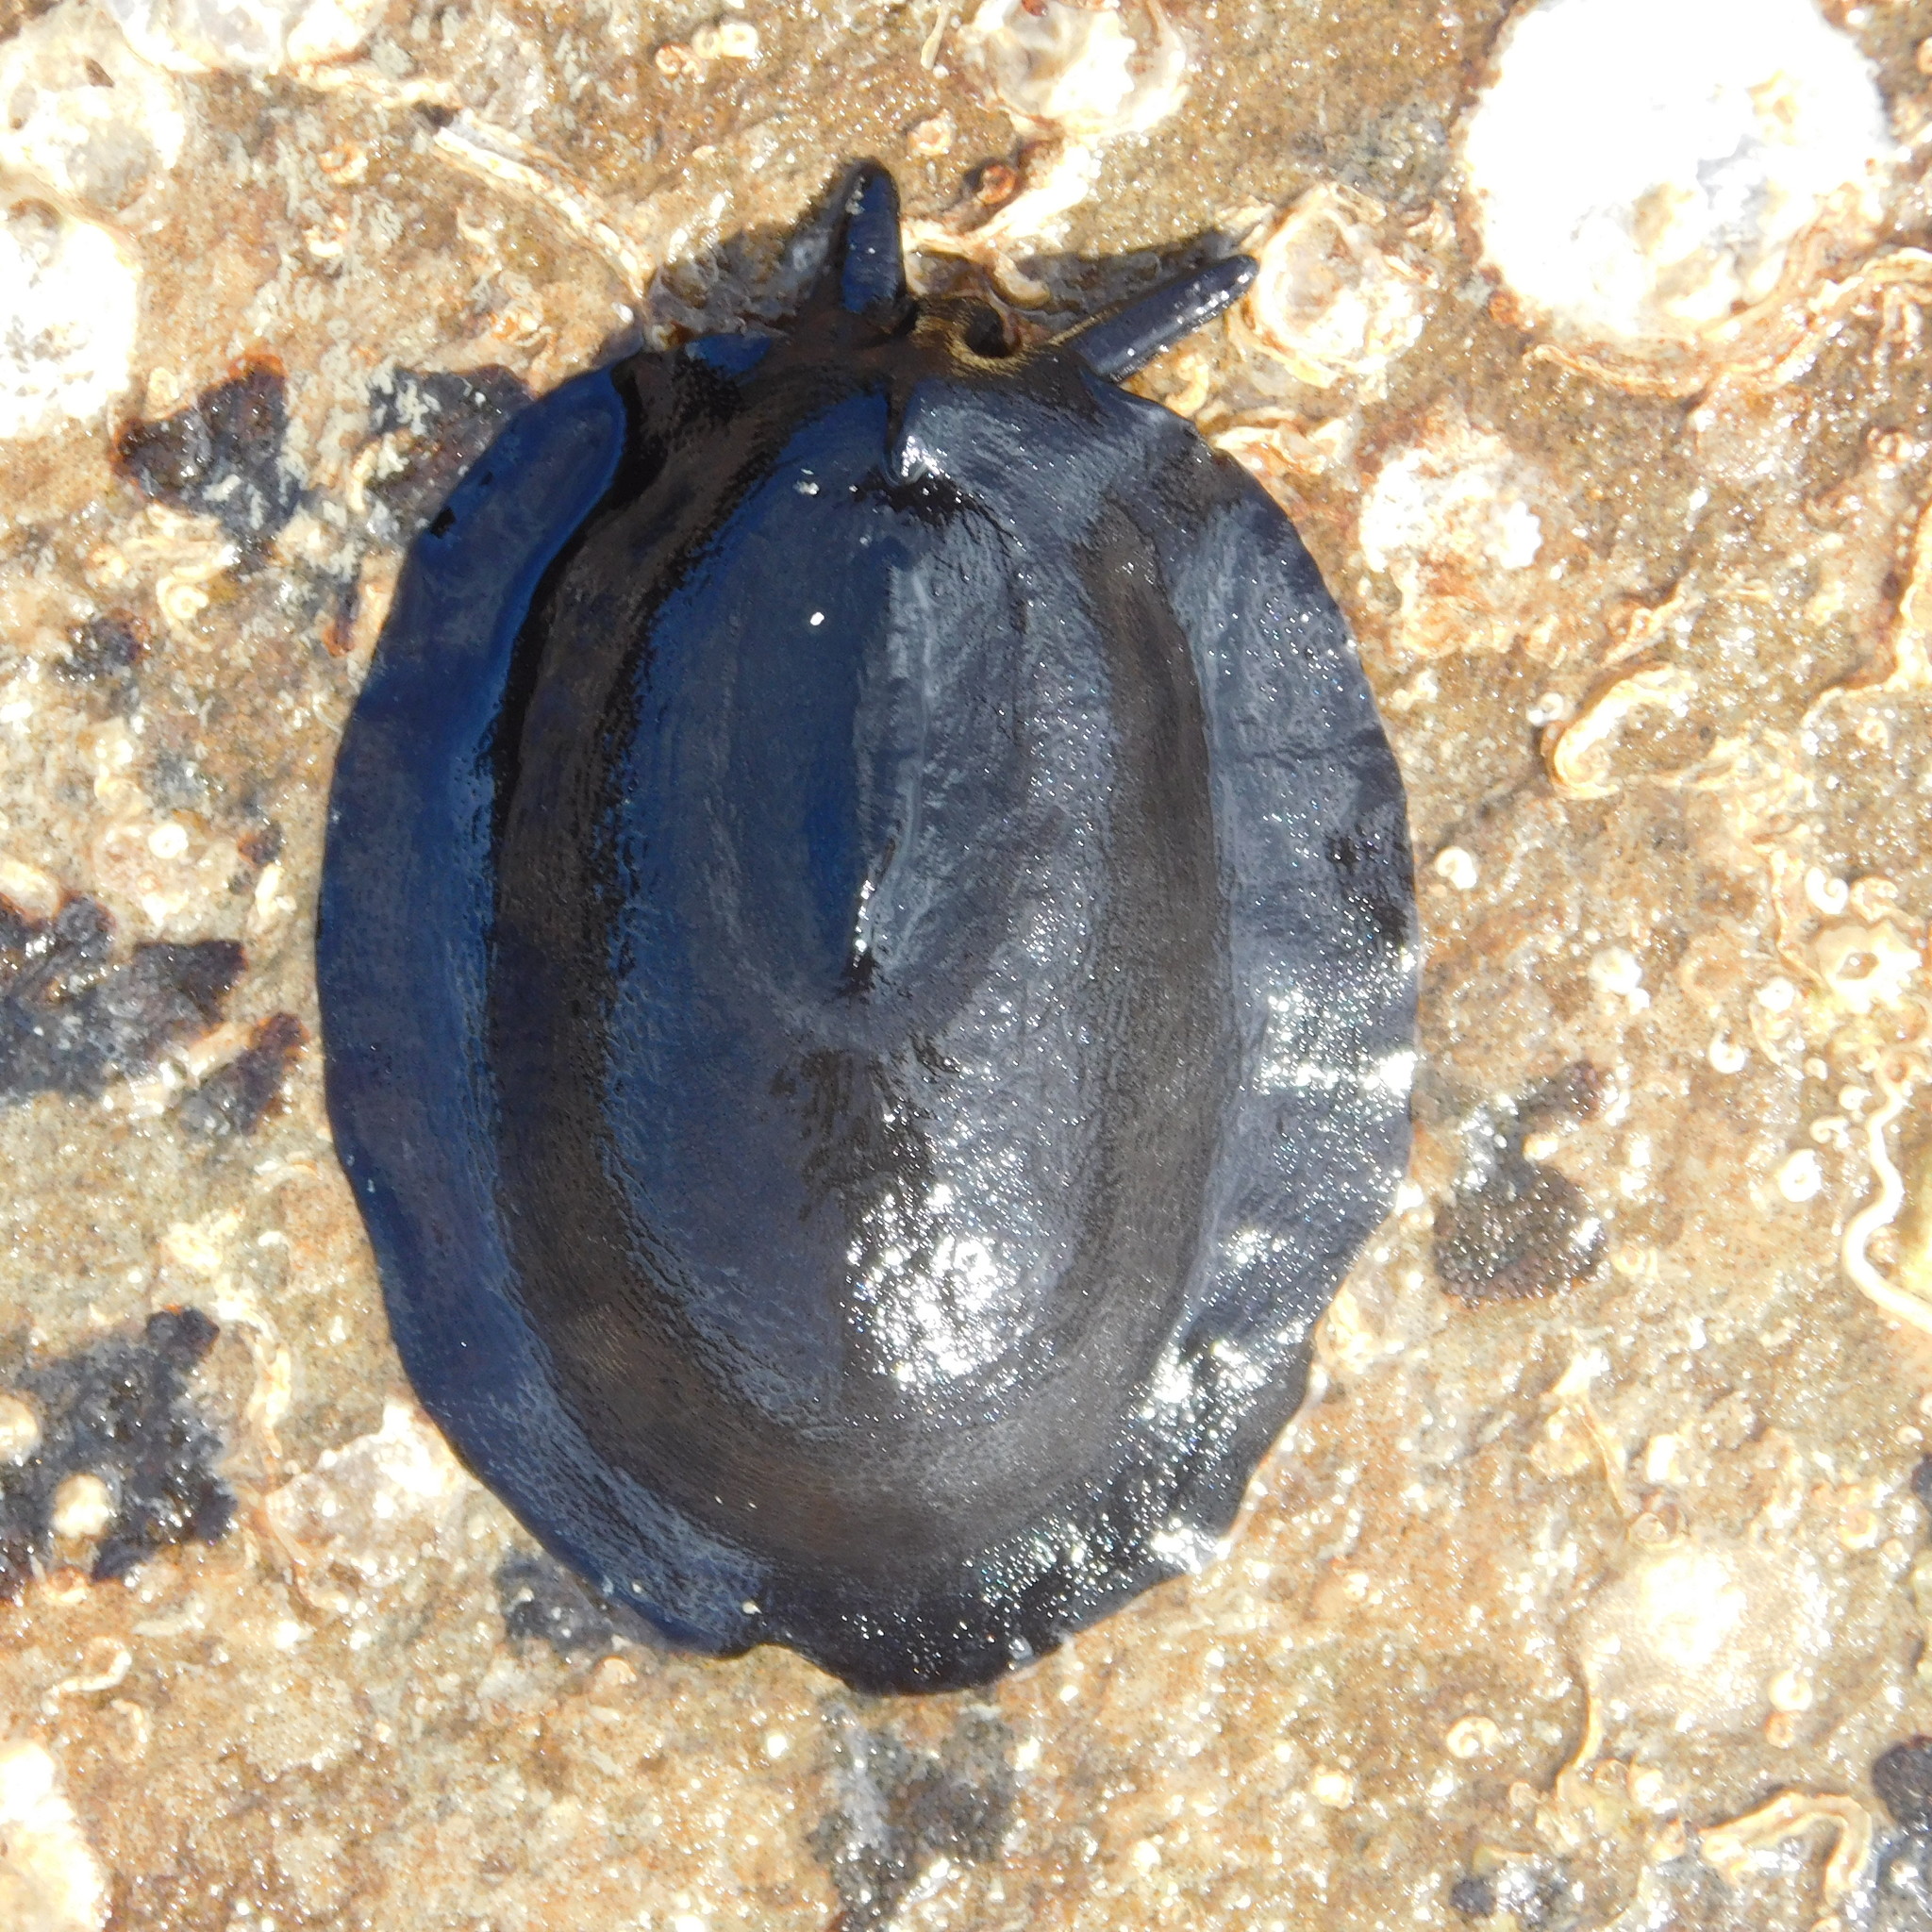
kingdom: Animalia
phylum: Mollusca
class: Gastropoda
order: Lepetellida
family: Fissurellidae
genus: Scutus
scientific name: Scutus breviculus
